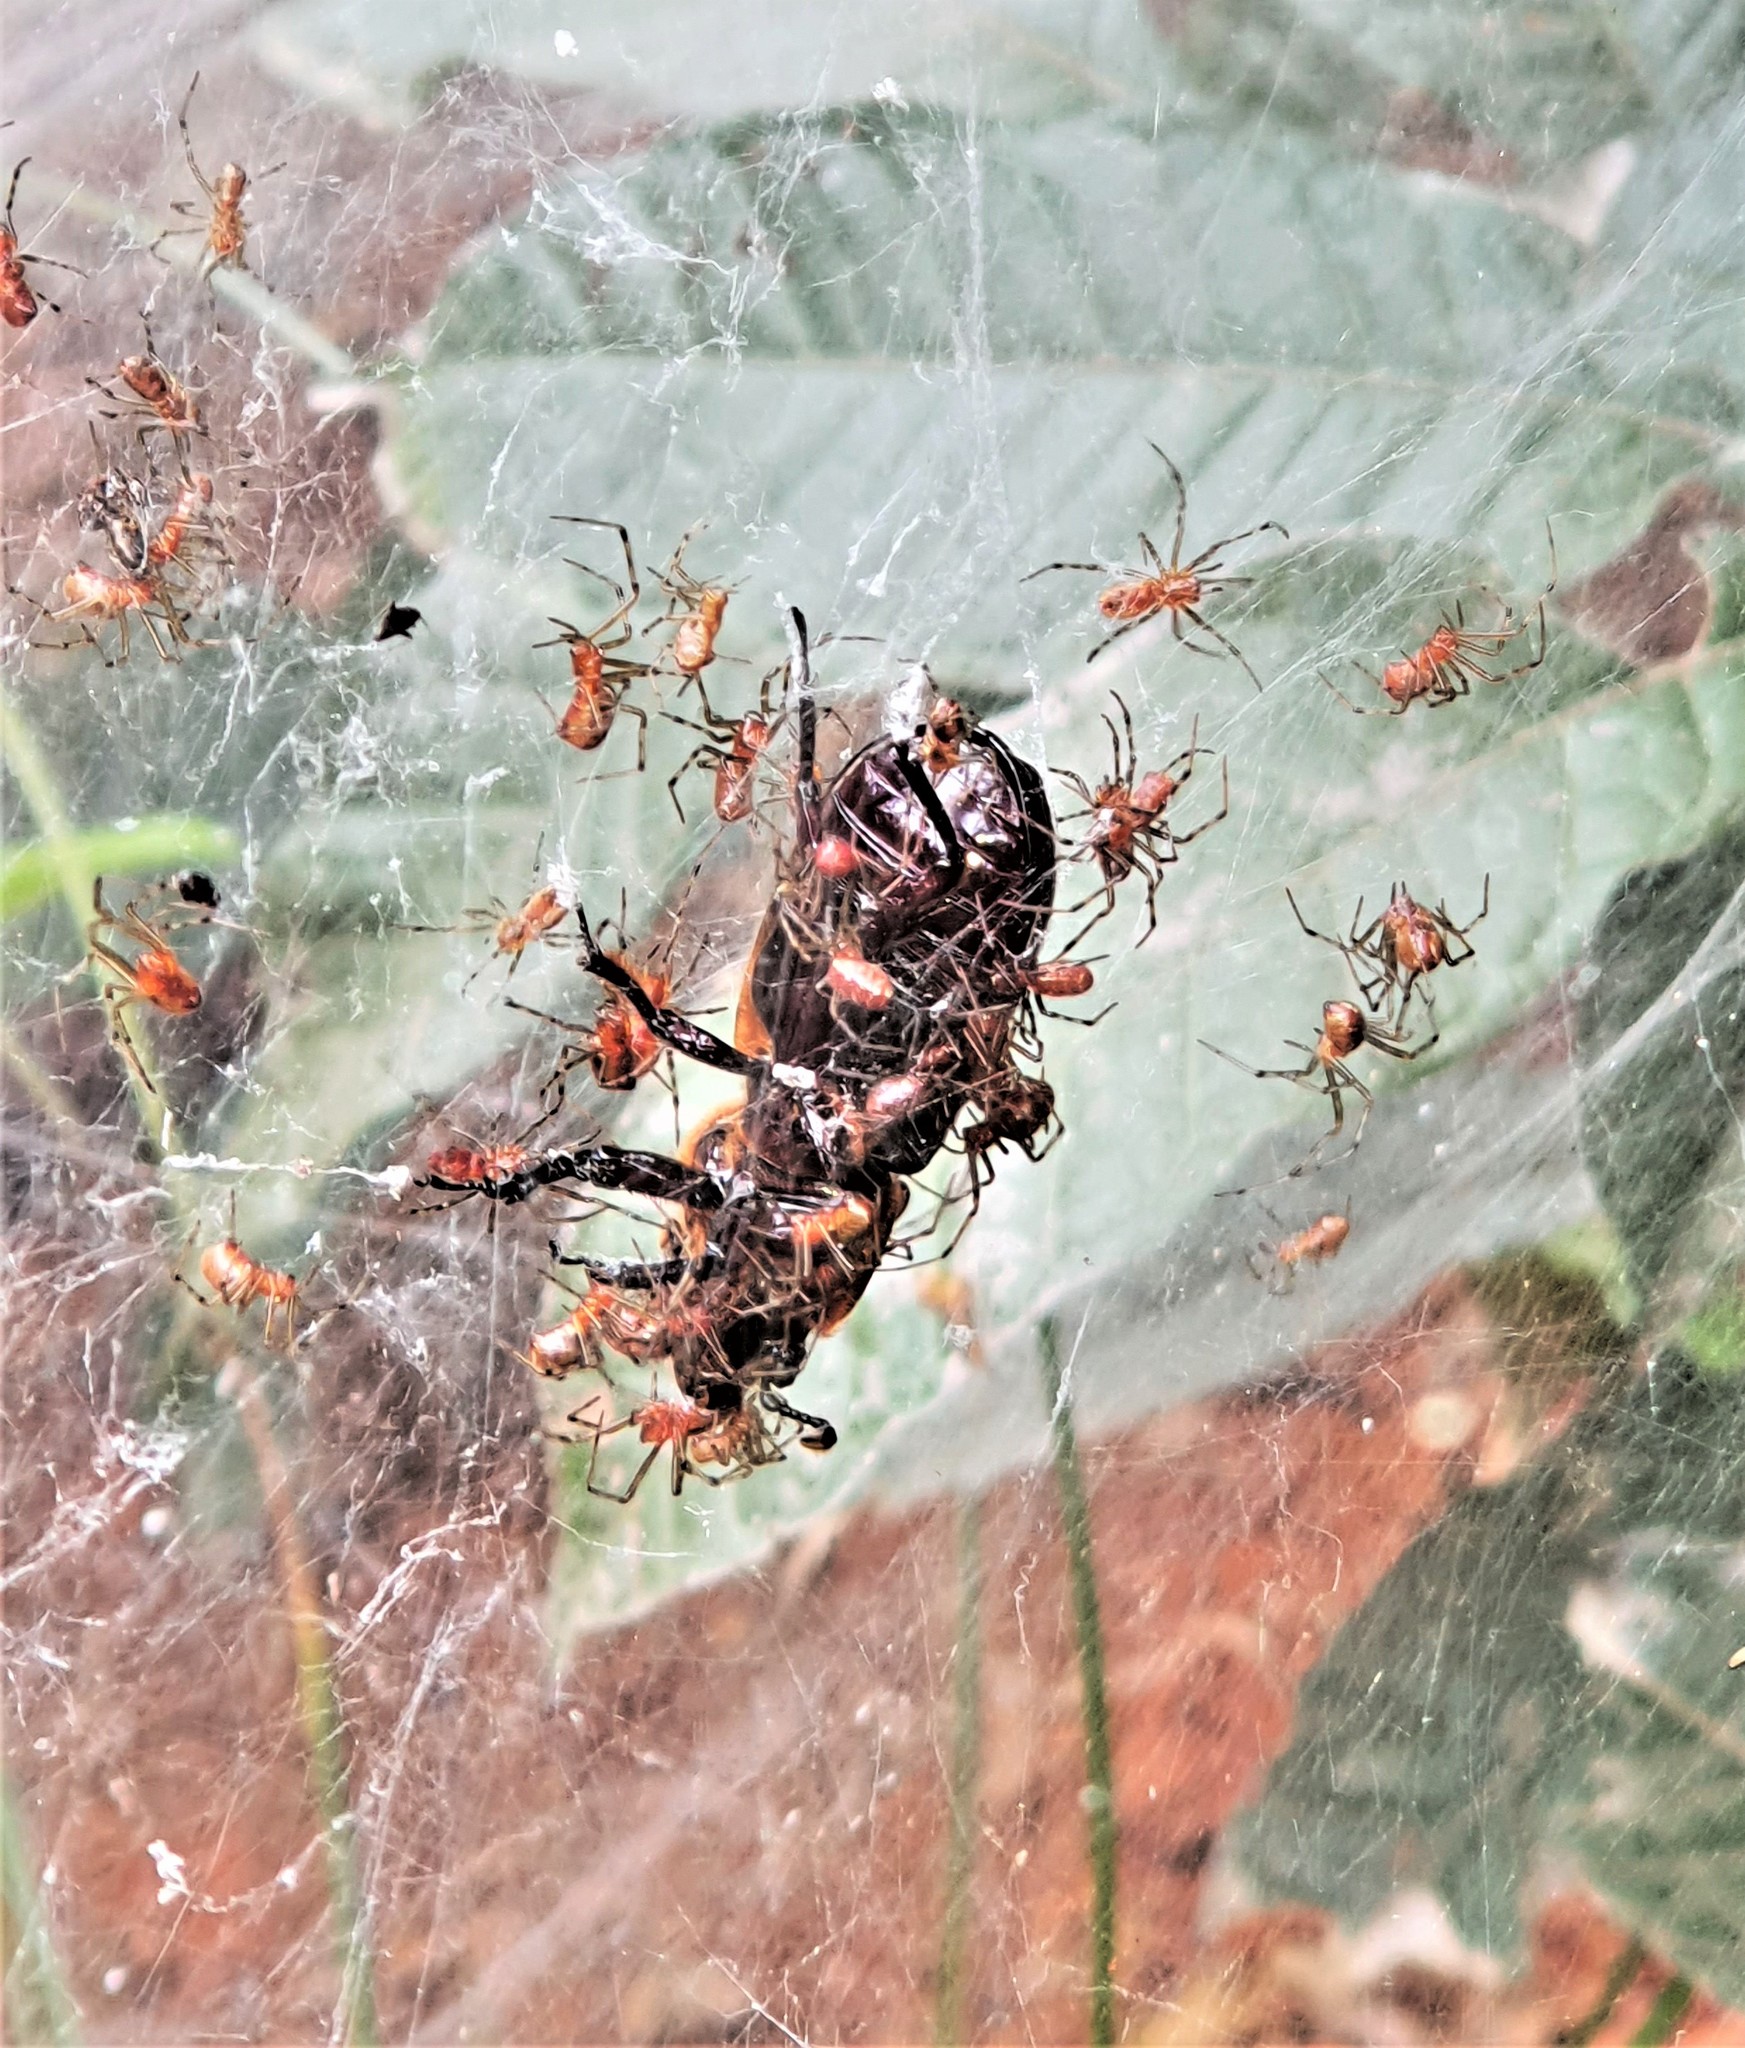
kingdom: Animalia
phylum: Arthropoda
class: Arachnida
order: Araneae
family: Theridiidae
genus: Anelosimus
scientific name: Anelosimus eximius
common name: Cobweb spiders
